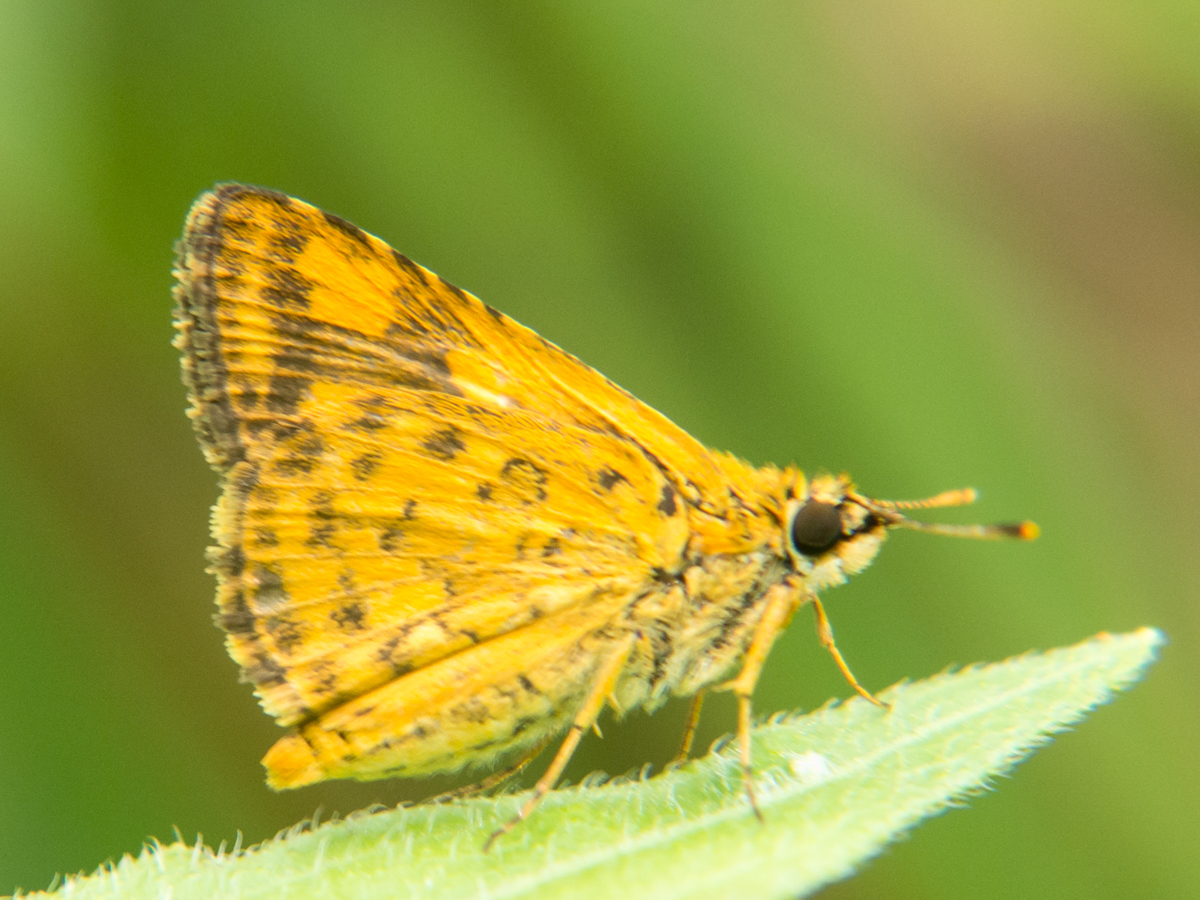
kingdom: Animalia
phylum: Arthropoda
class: Insecta
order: Lepidoptera
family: Hesperiidae
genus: Ampittia
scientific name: Ampittia dioscorides
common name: Common bush hopper
